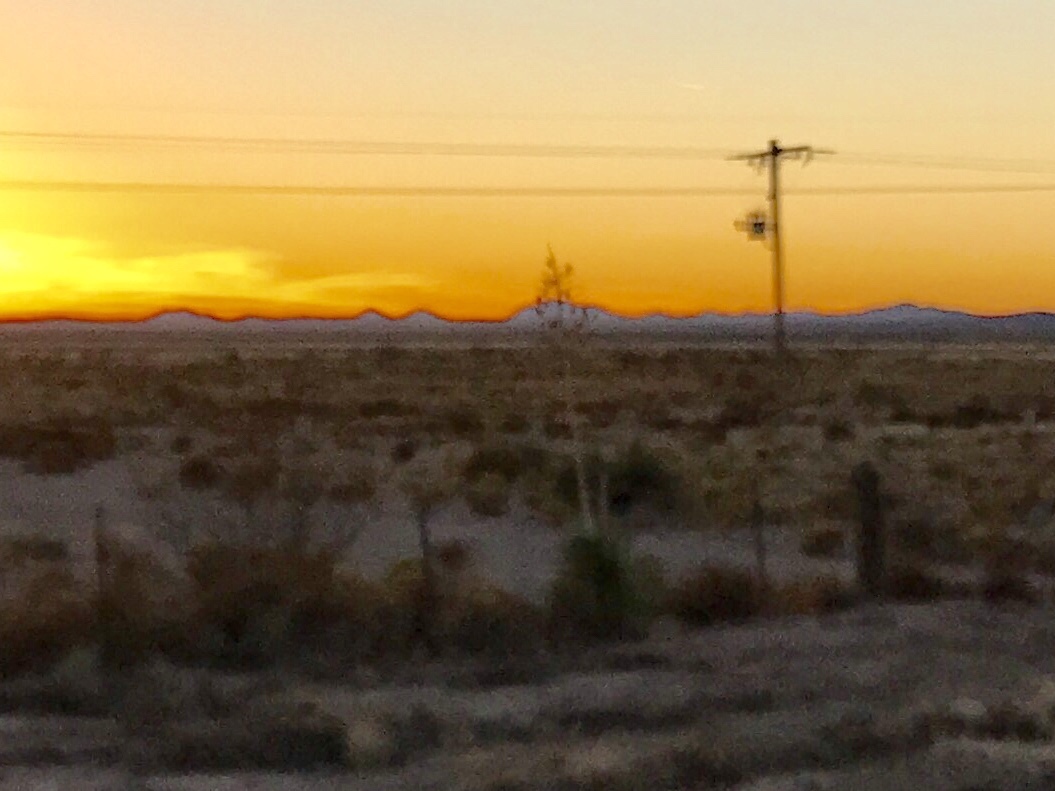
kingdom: Plantae
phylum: Tracheophyta
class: Liliopsida
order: Asparagales
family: Asparagaceae
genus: Yucca
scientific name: Yucca elata
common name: Palmella
